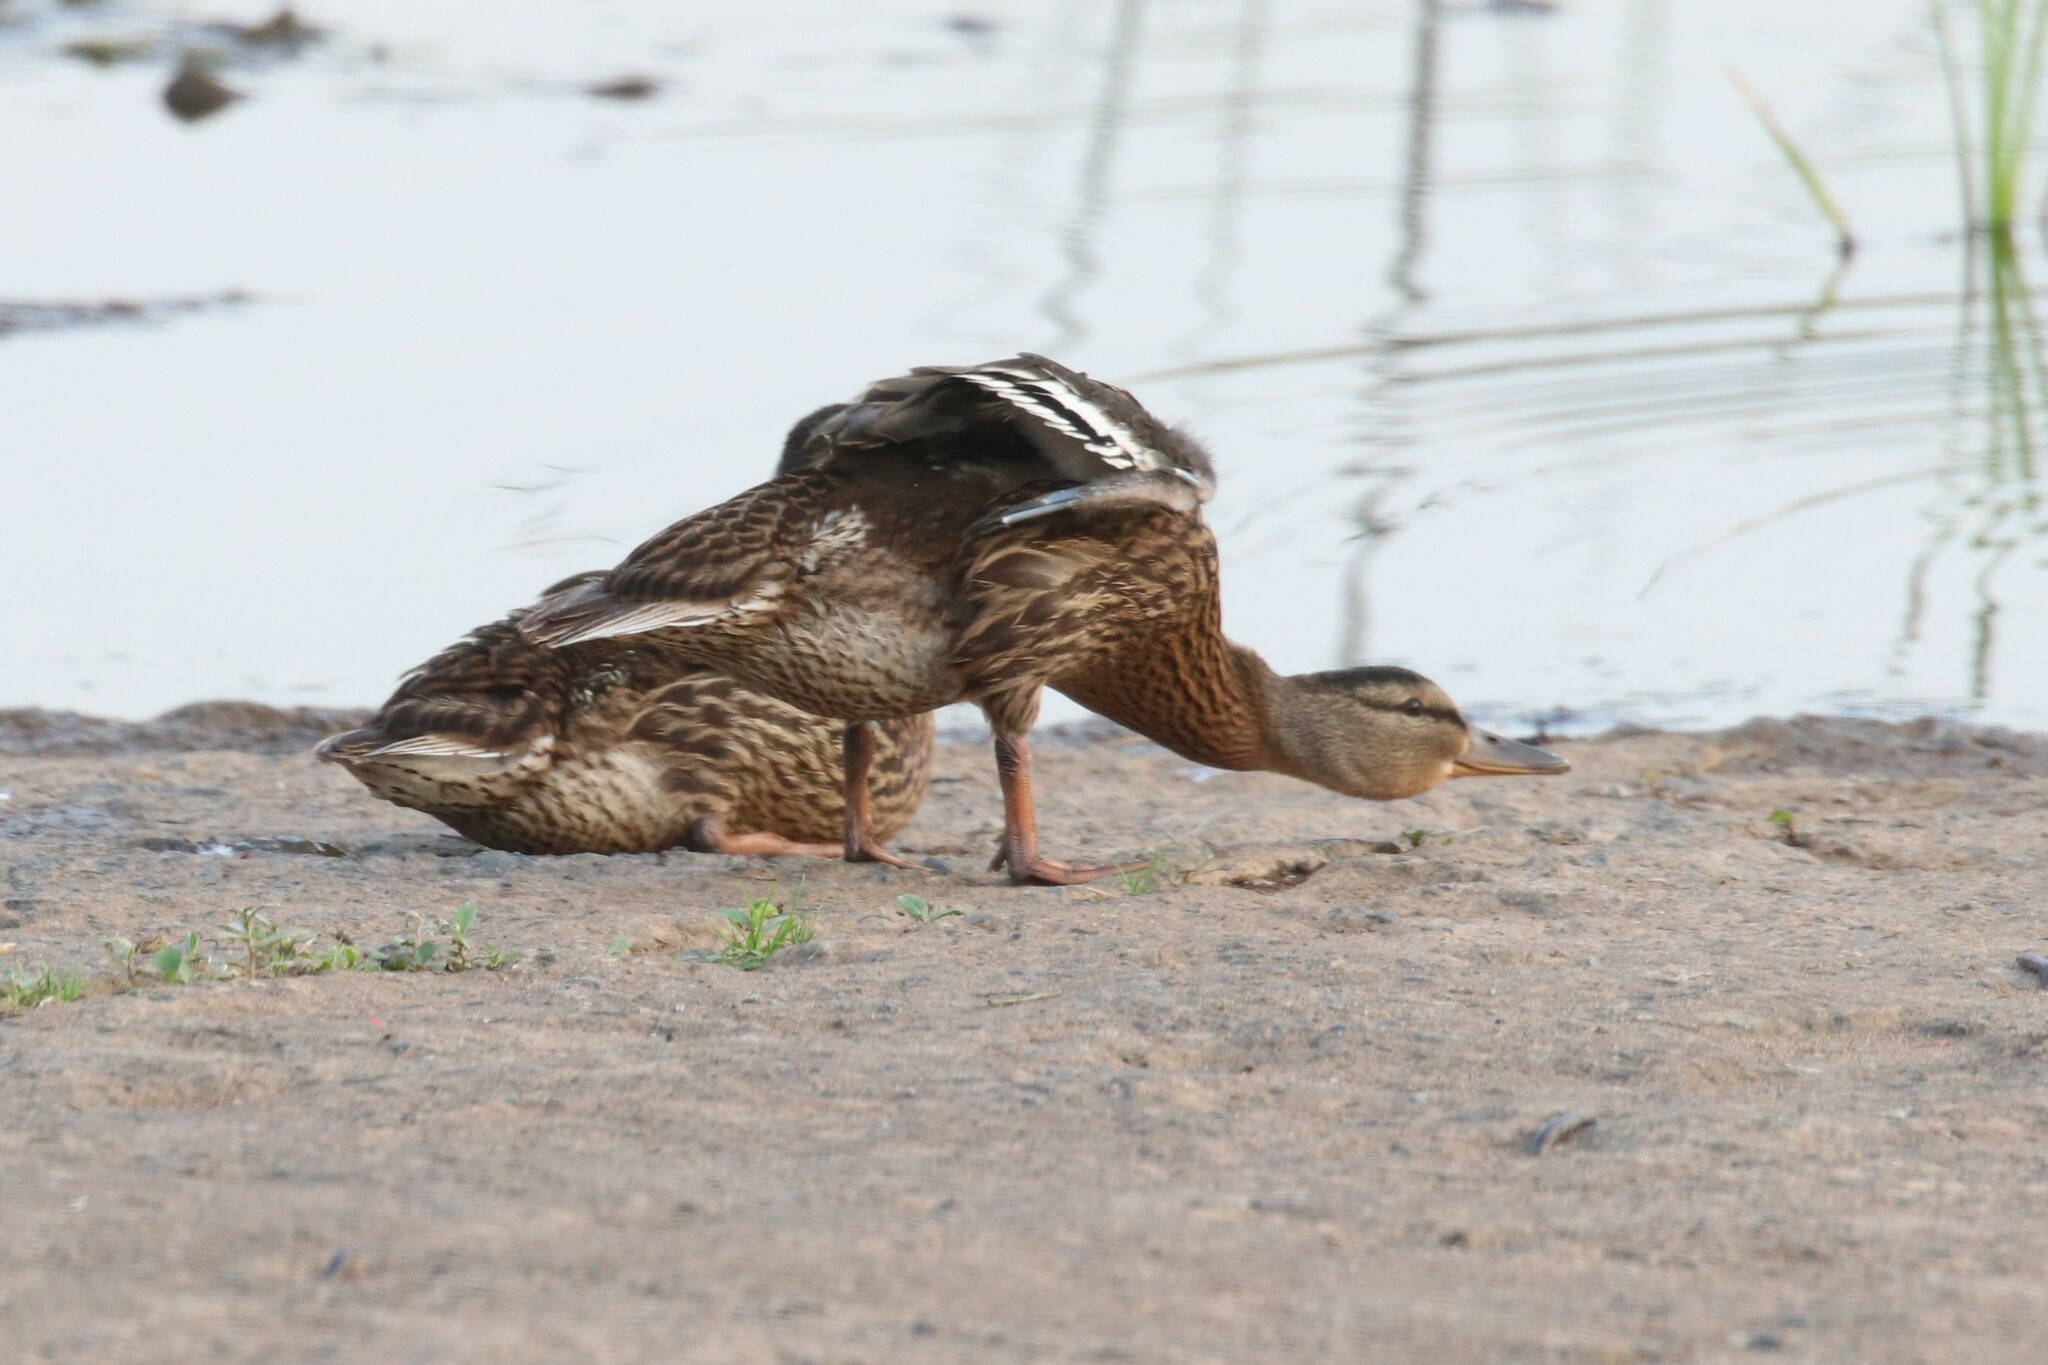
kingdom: Animalia
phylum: Chordata
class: Aves
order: Anseriformes
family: Anatidae
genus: Anas
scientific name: Anas platyrhynchos
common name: Mallard
